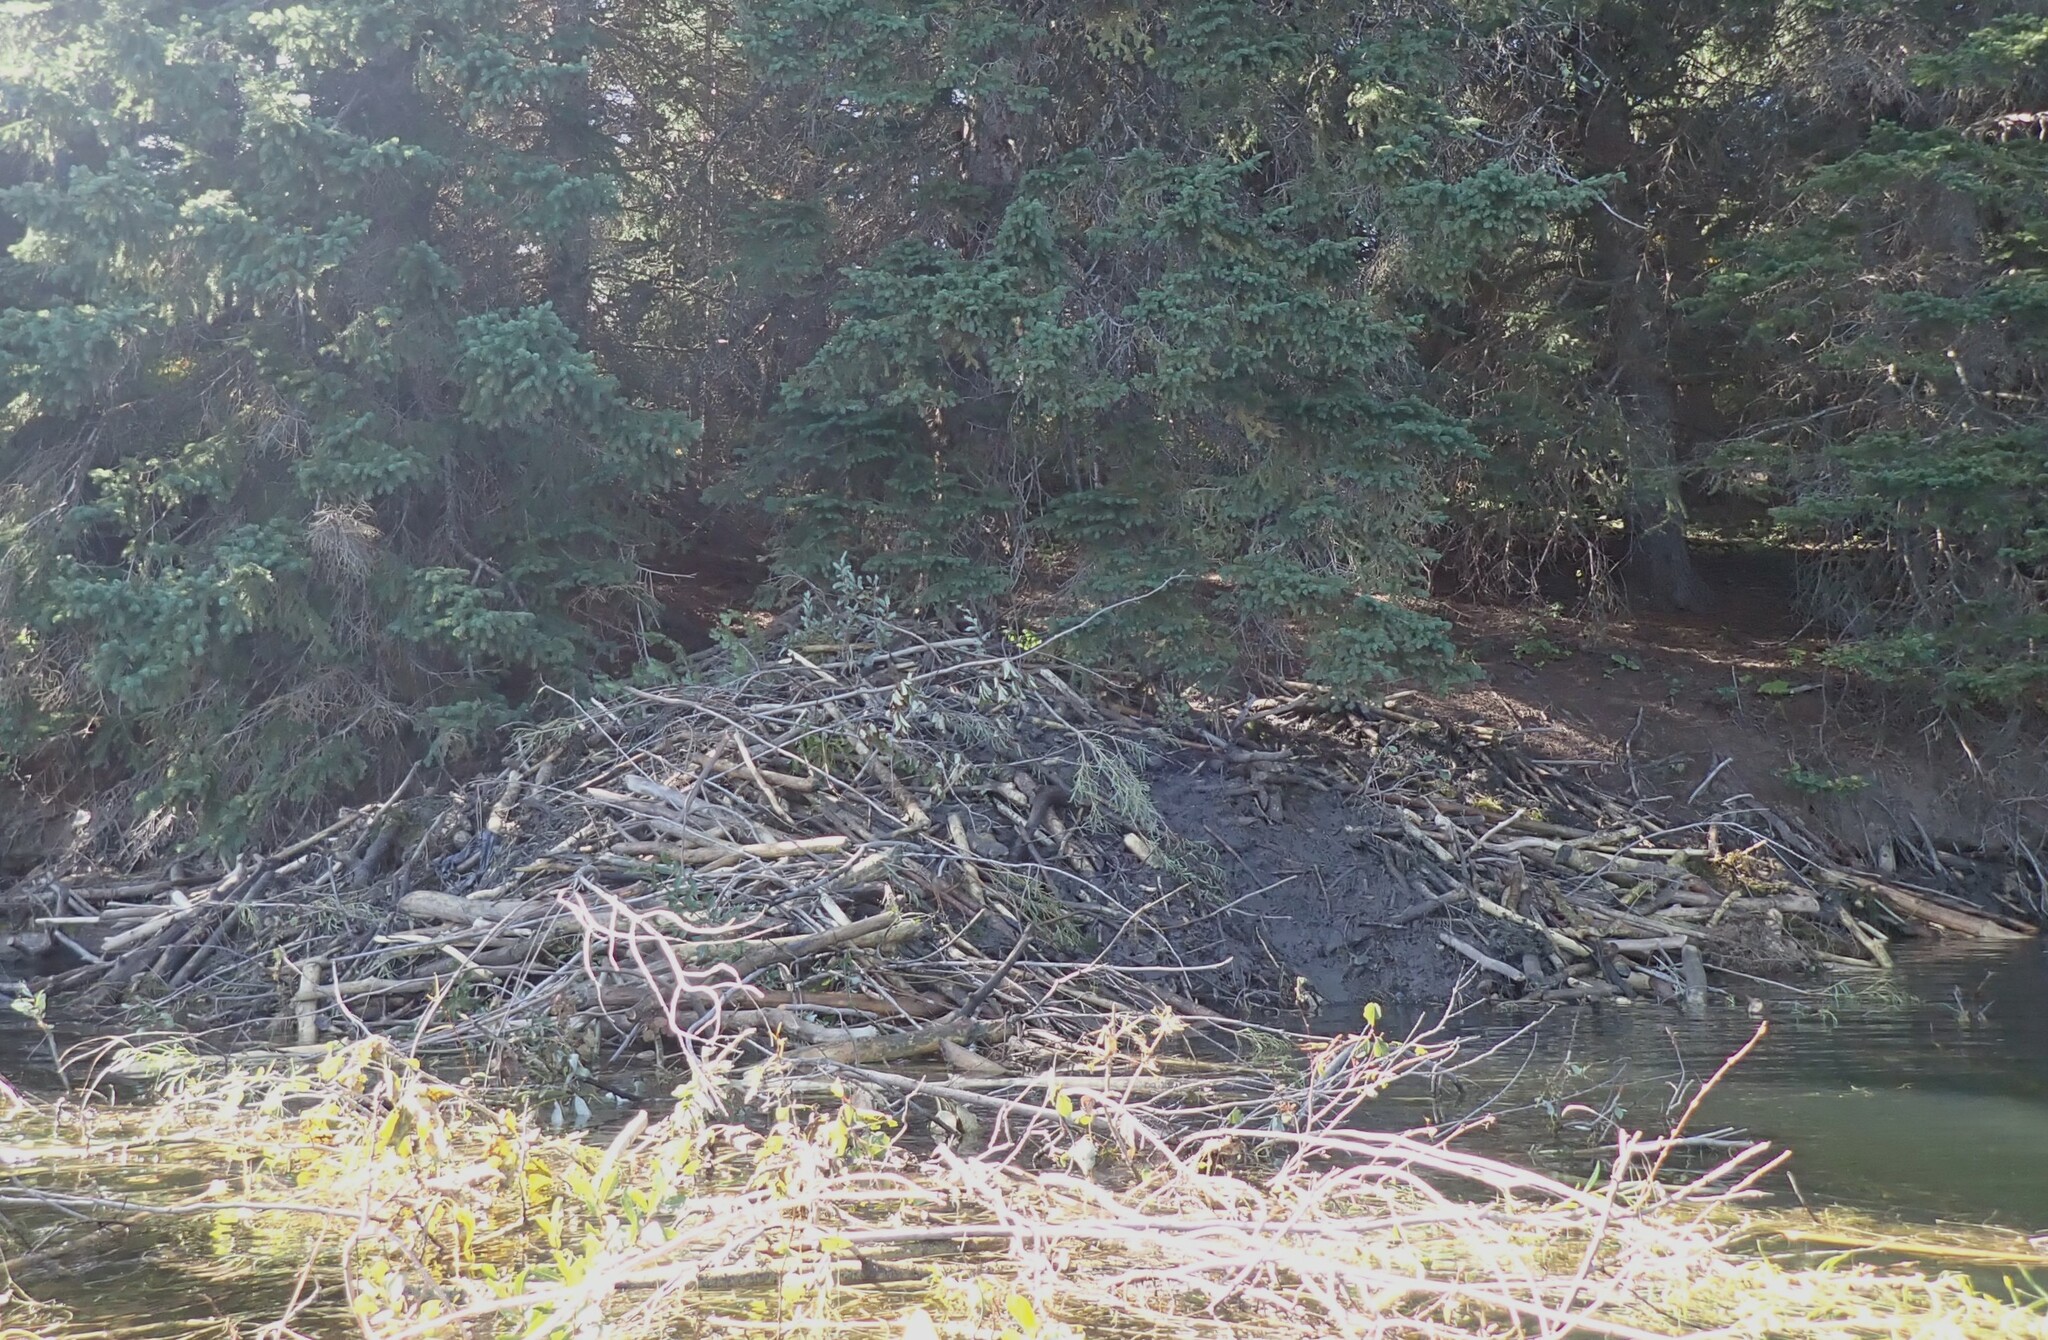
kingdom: Animalia
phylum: Chordata
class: Mammalia
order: Rodentia
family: Castoridae
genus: Castor
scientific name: Castor canadensis
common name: American beaver
